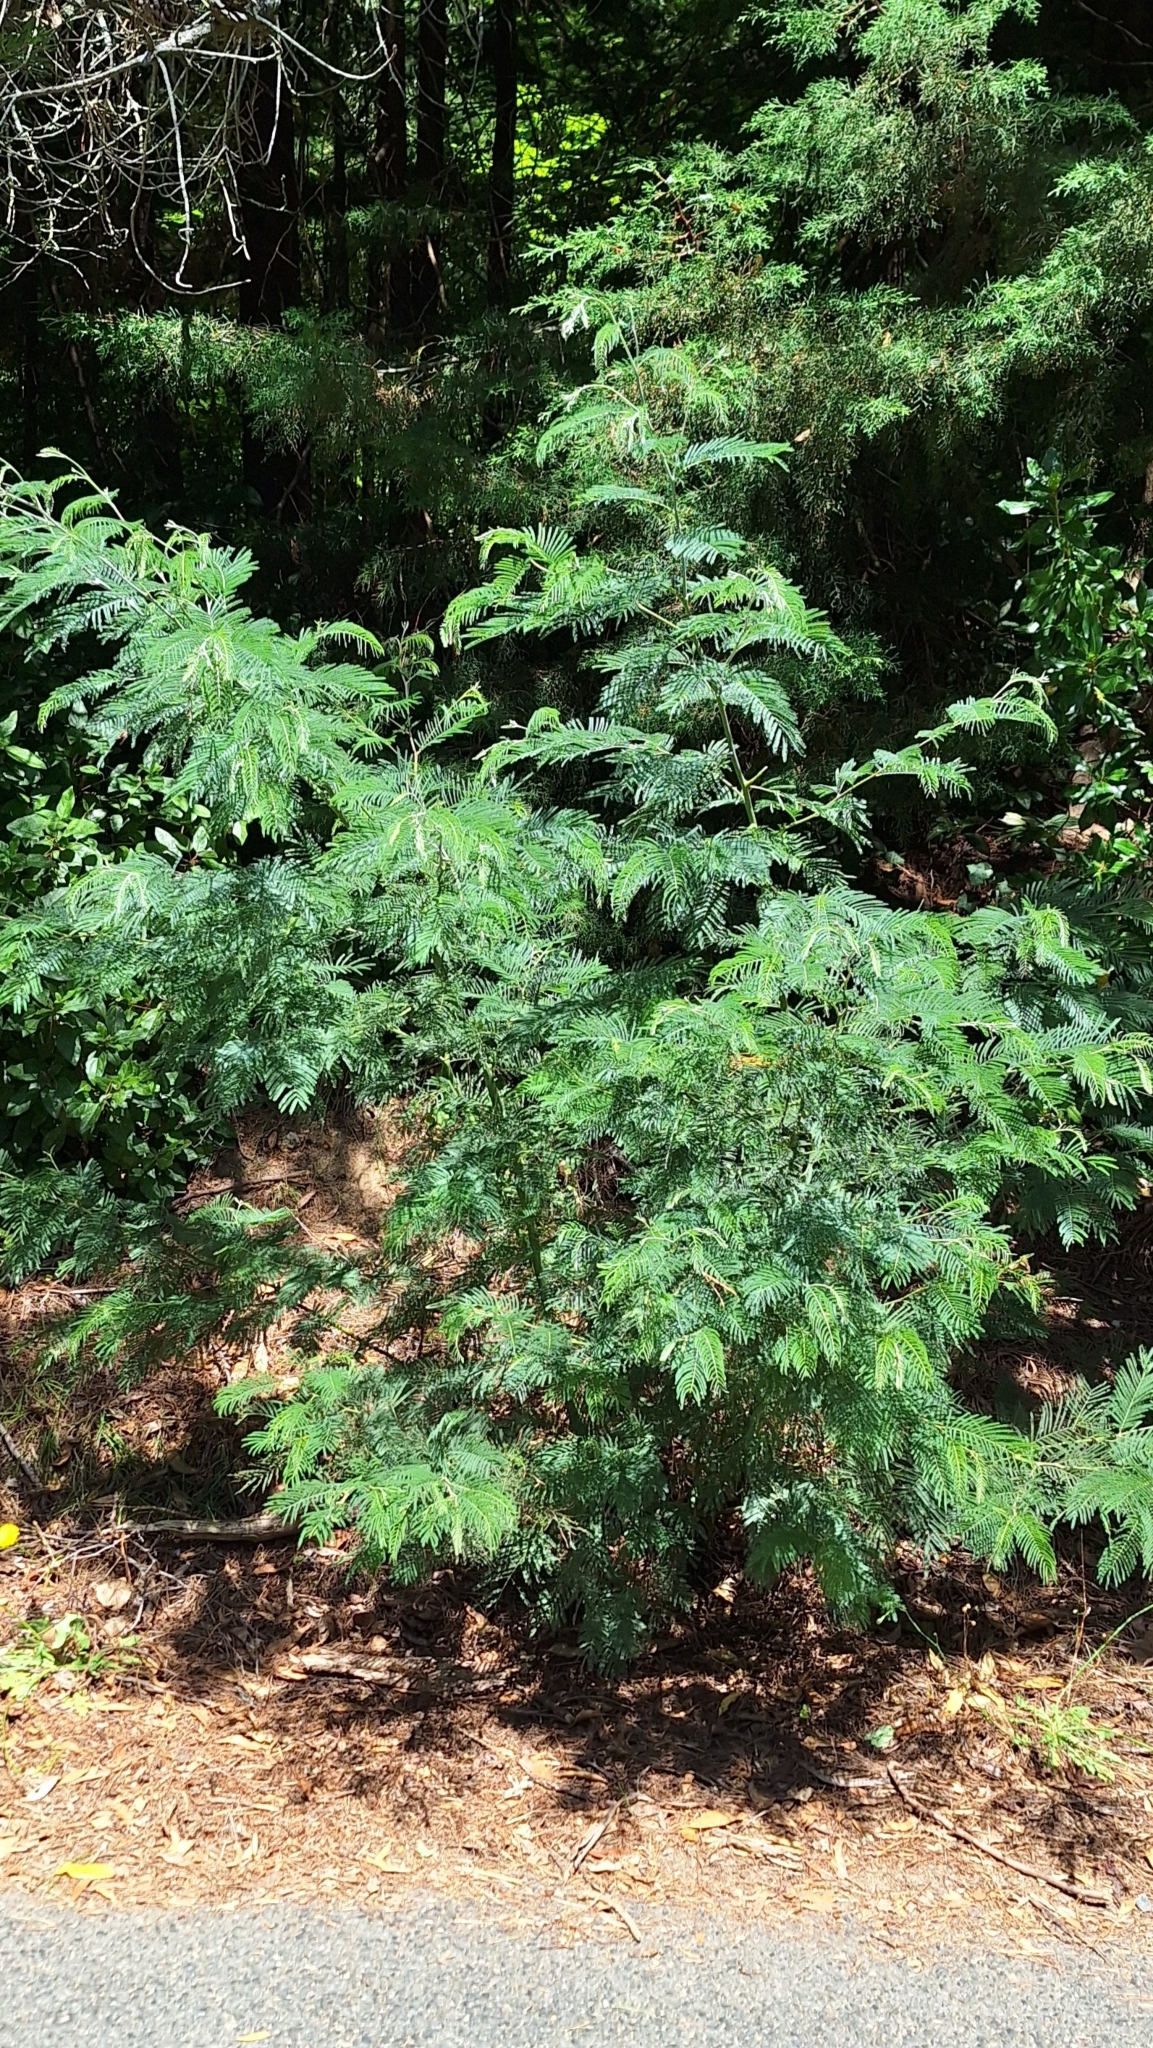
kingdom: Plantae
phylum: Tracheophyta
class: Magnoliopsida
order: Fabales
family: Fabaceae
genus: Acacia
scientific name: Acacia dealbata
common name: Silver wattle
